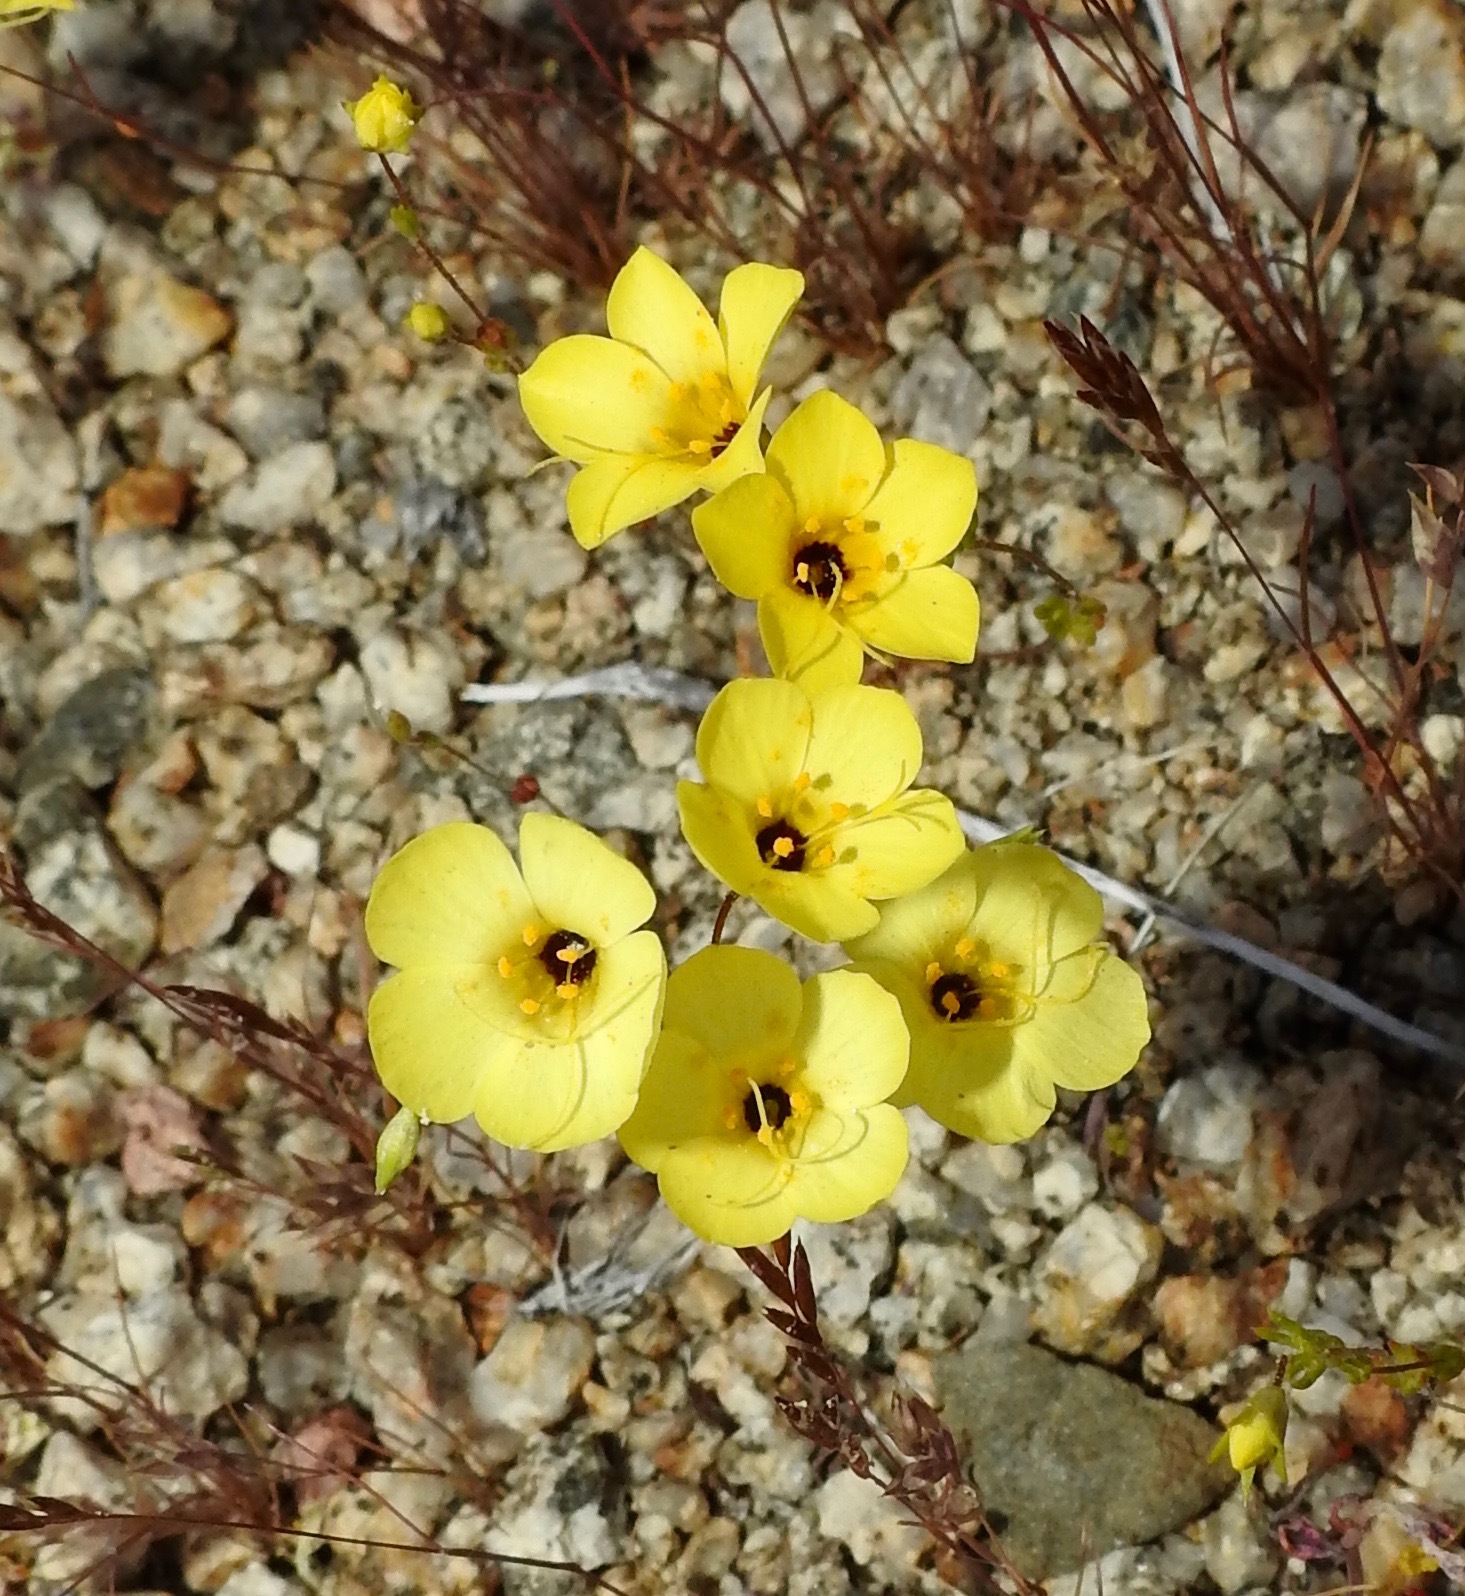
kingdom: Plantae
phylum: Tracheophyta
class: Magnoliopsida
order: Ericales
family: Polemoniaceae
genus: Leptosiphon
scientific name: Leptosiphon chrysanthus
